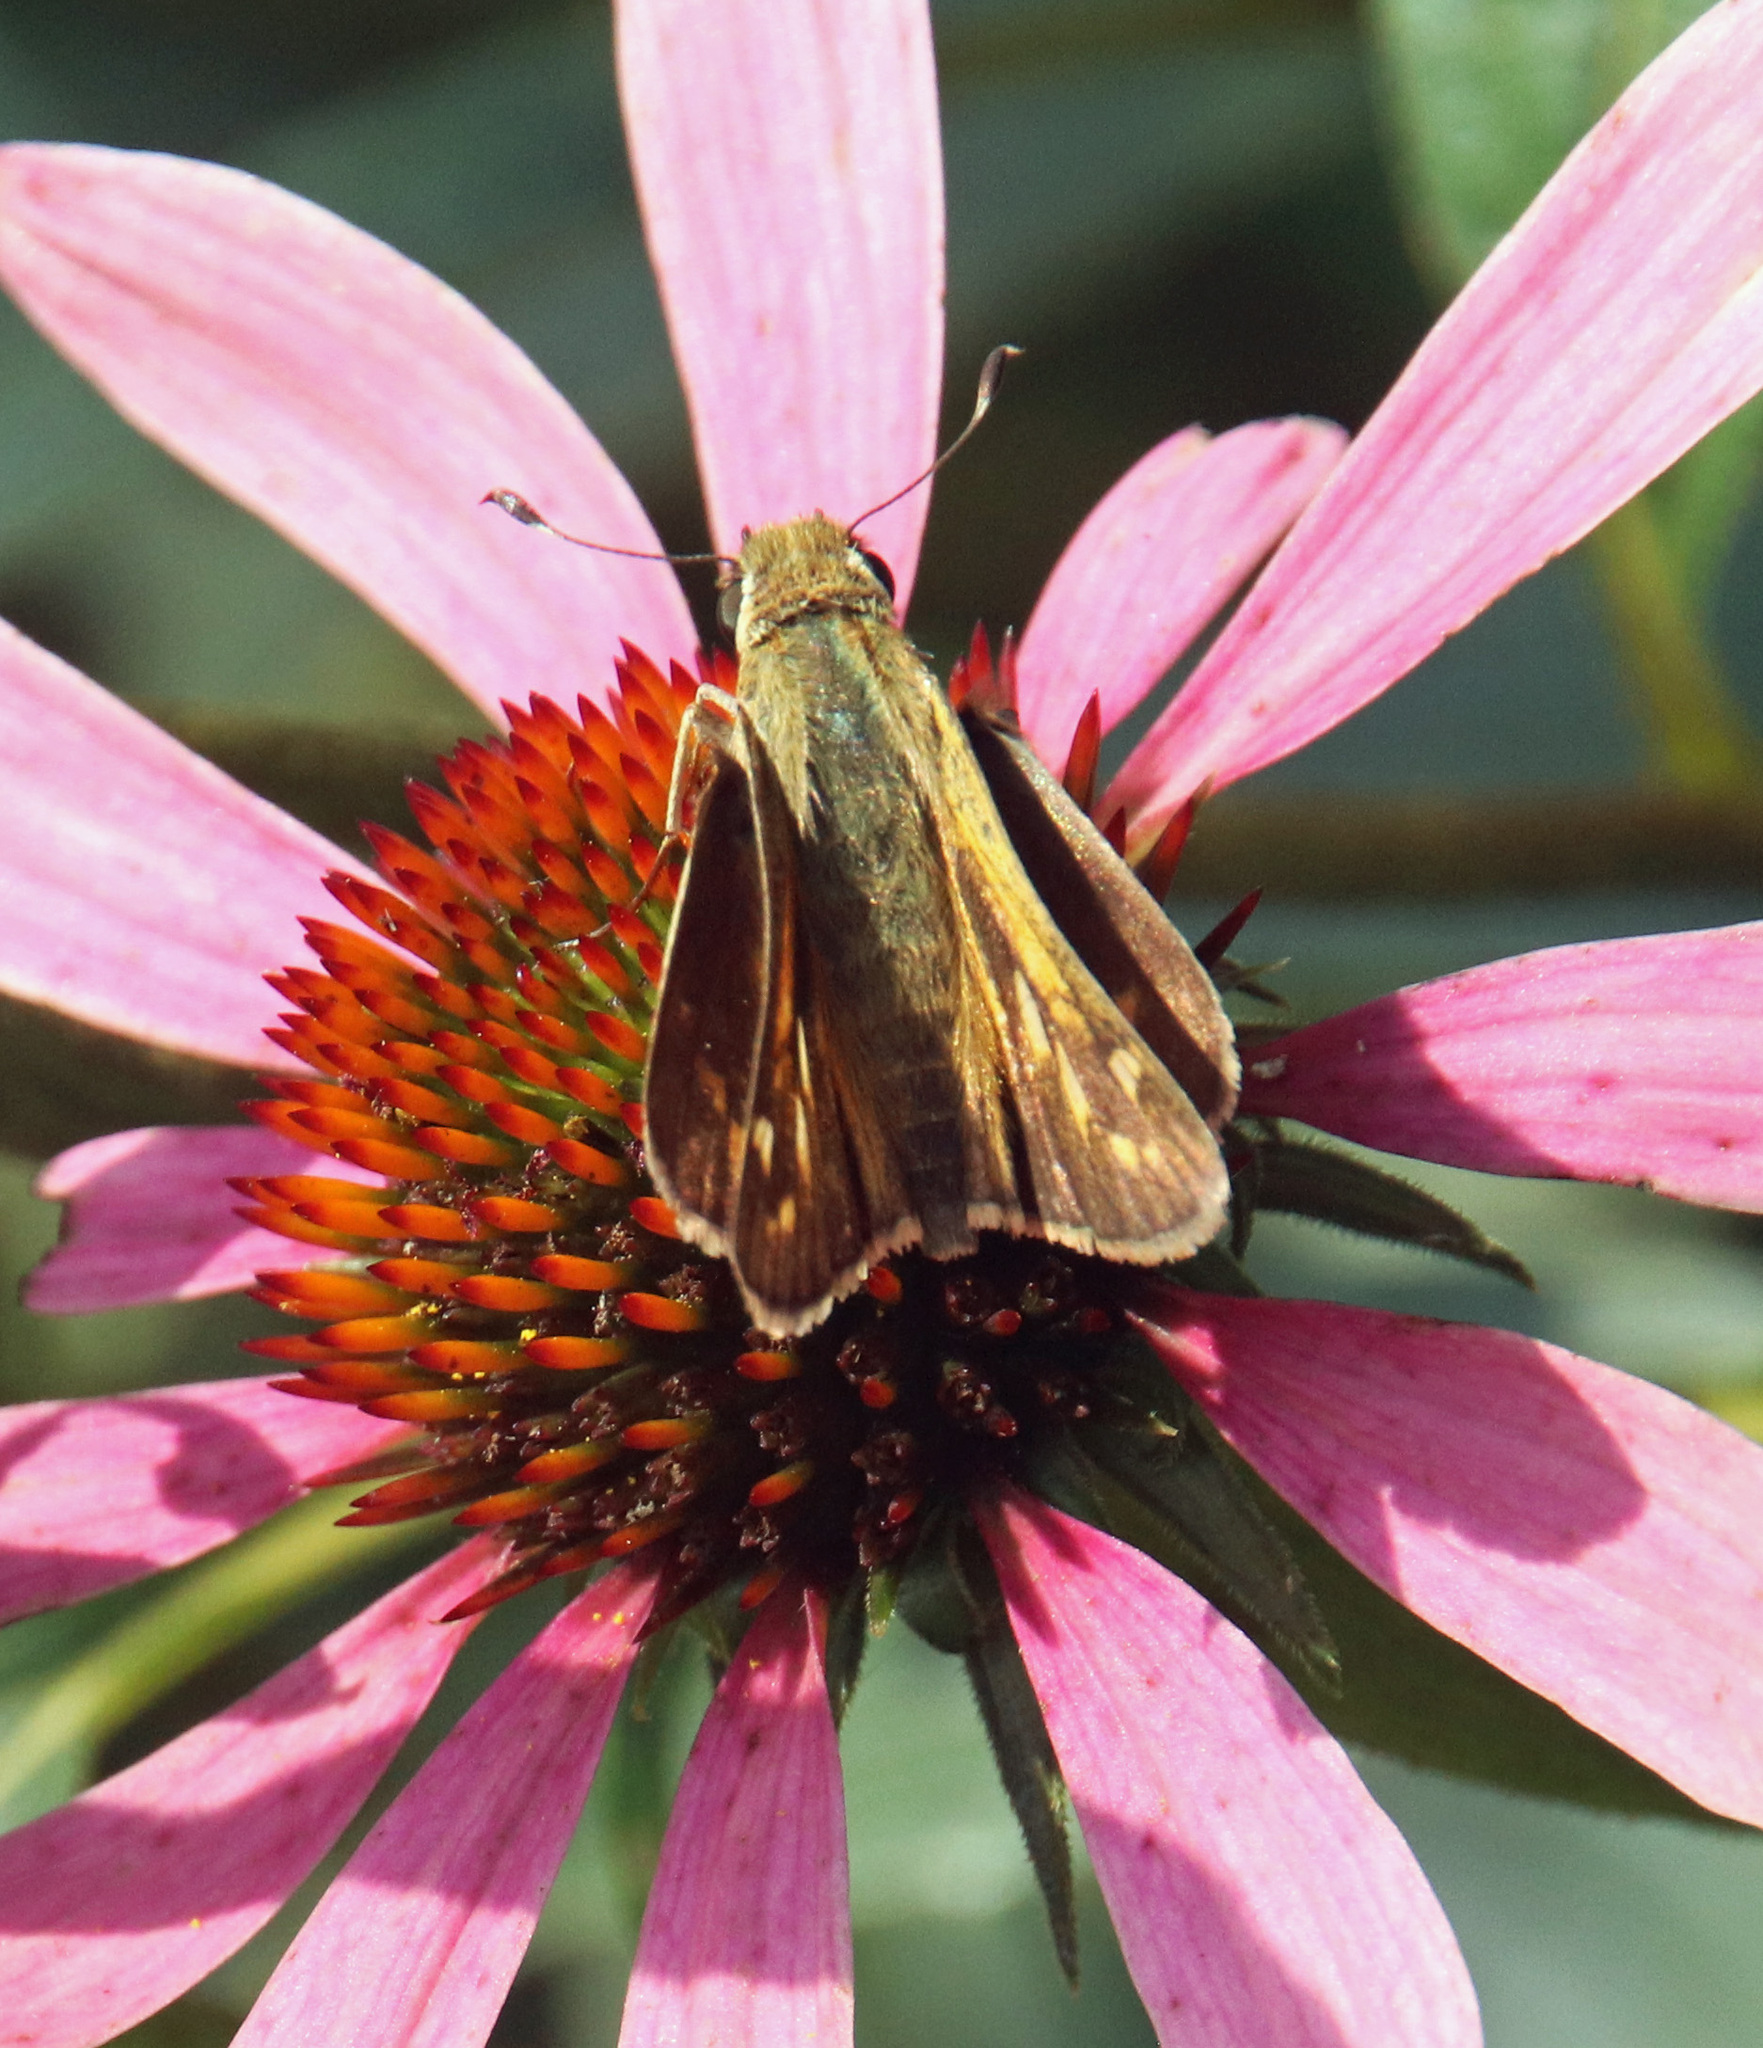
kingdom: Animalia
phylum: Arthropoda
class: Insecta
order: Lepidoptera
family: Hesperiidae
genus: Atalopedes
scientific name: Atalopedes
